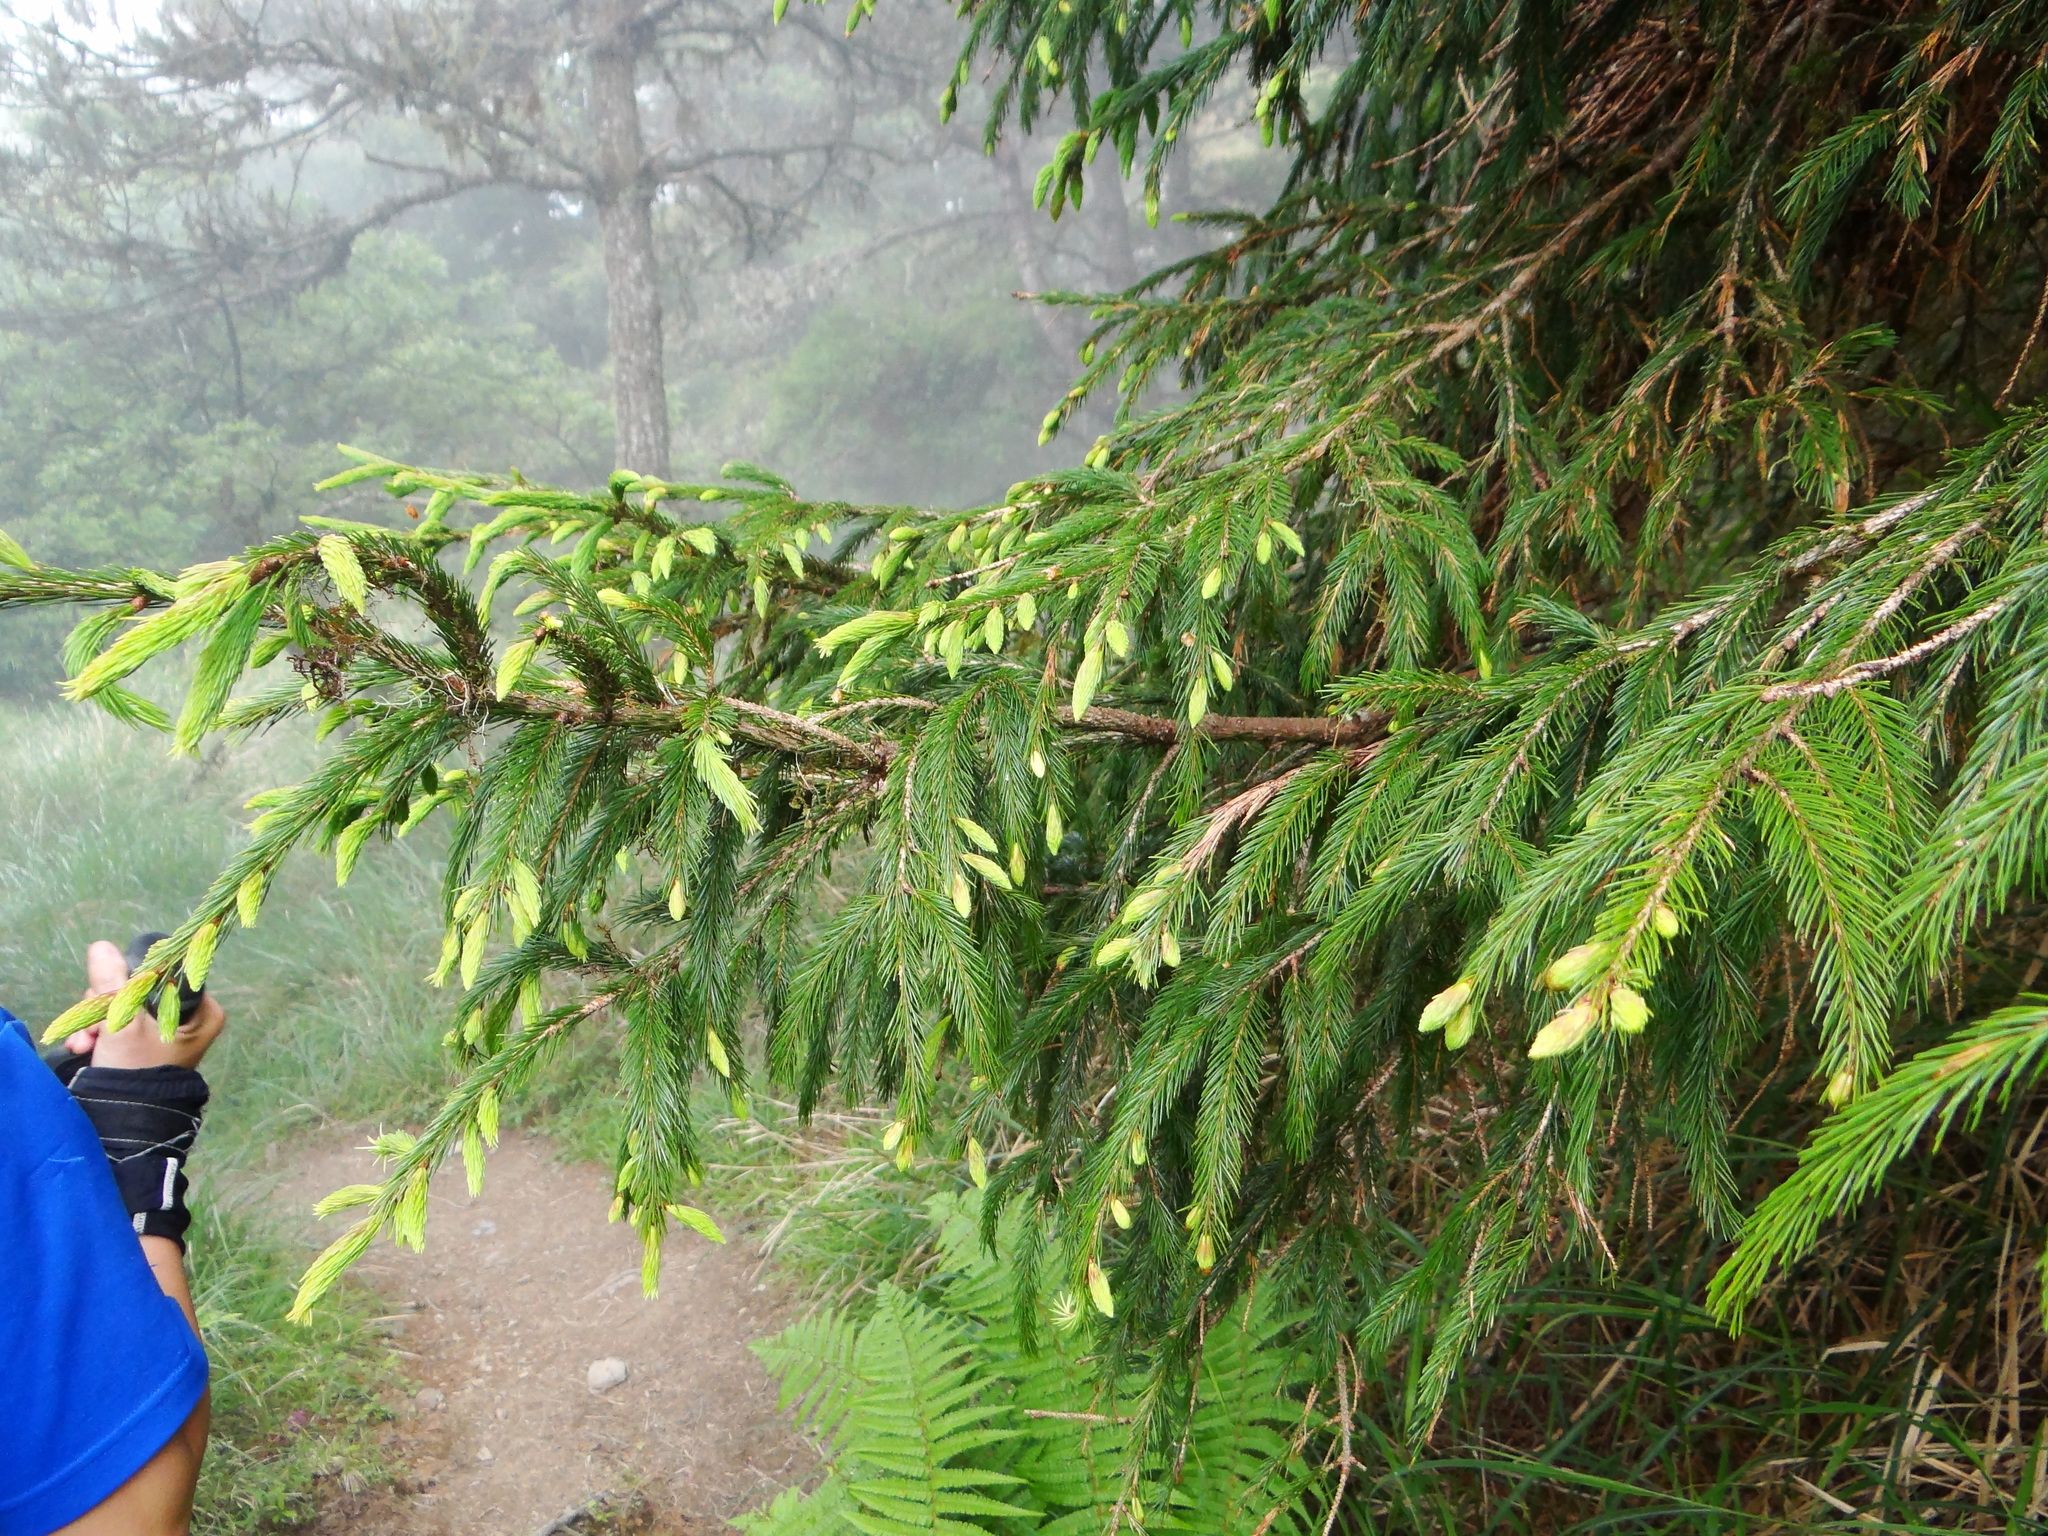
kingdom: Plantae
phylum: Tracheophyta
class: Pinopsida
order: Pinales
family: Pinaceae
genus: Picea
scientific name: Picea morrisonicola
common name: Mount morrison spruce
